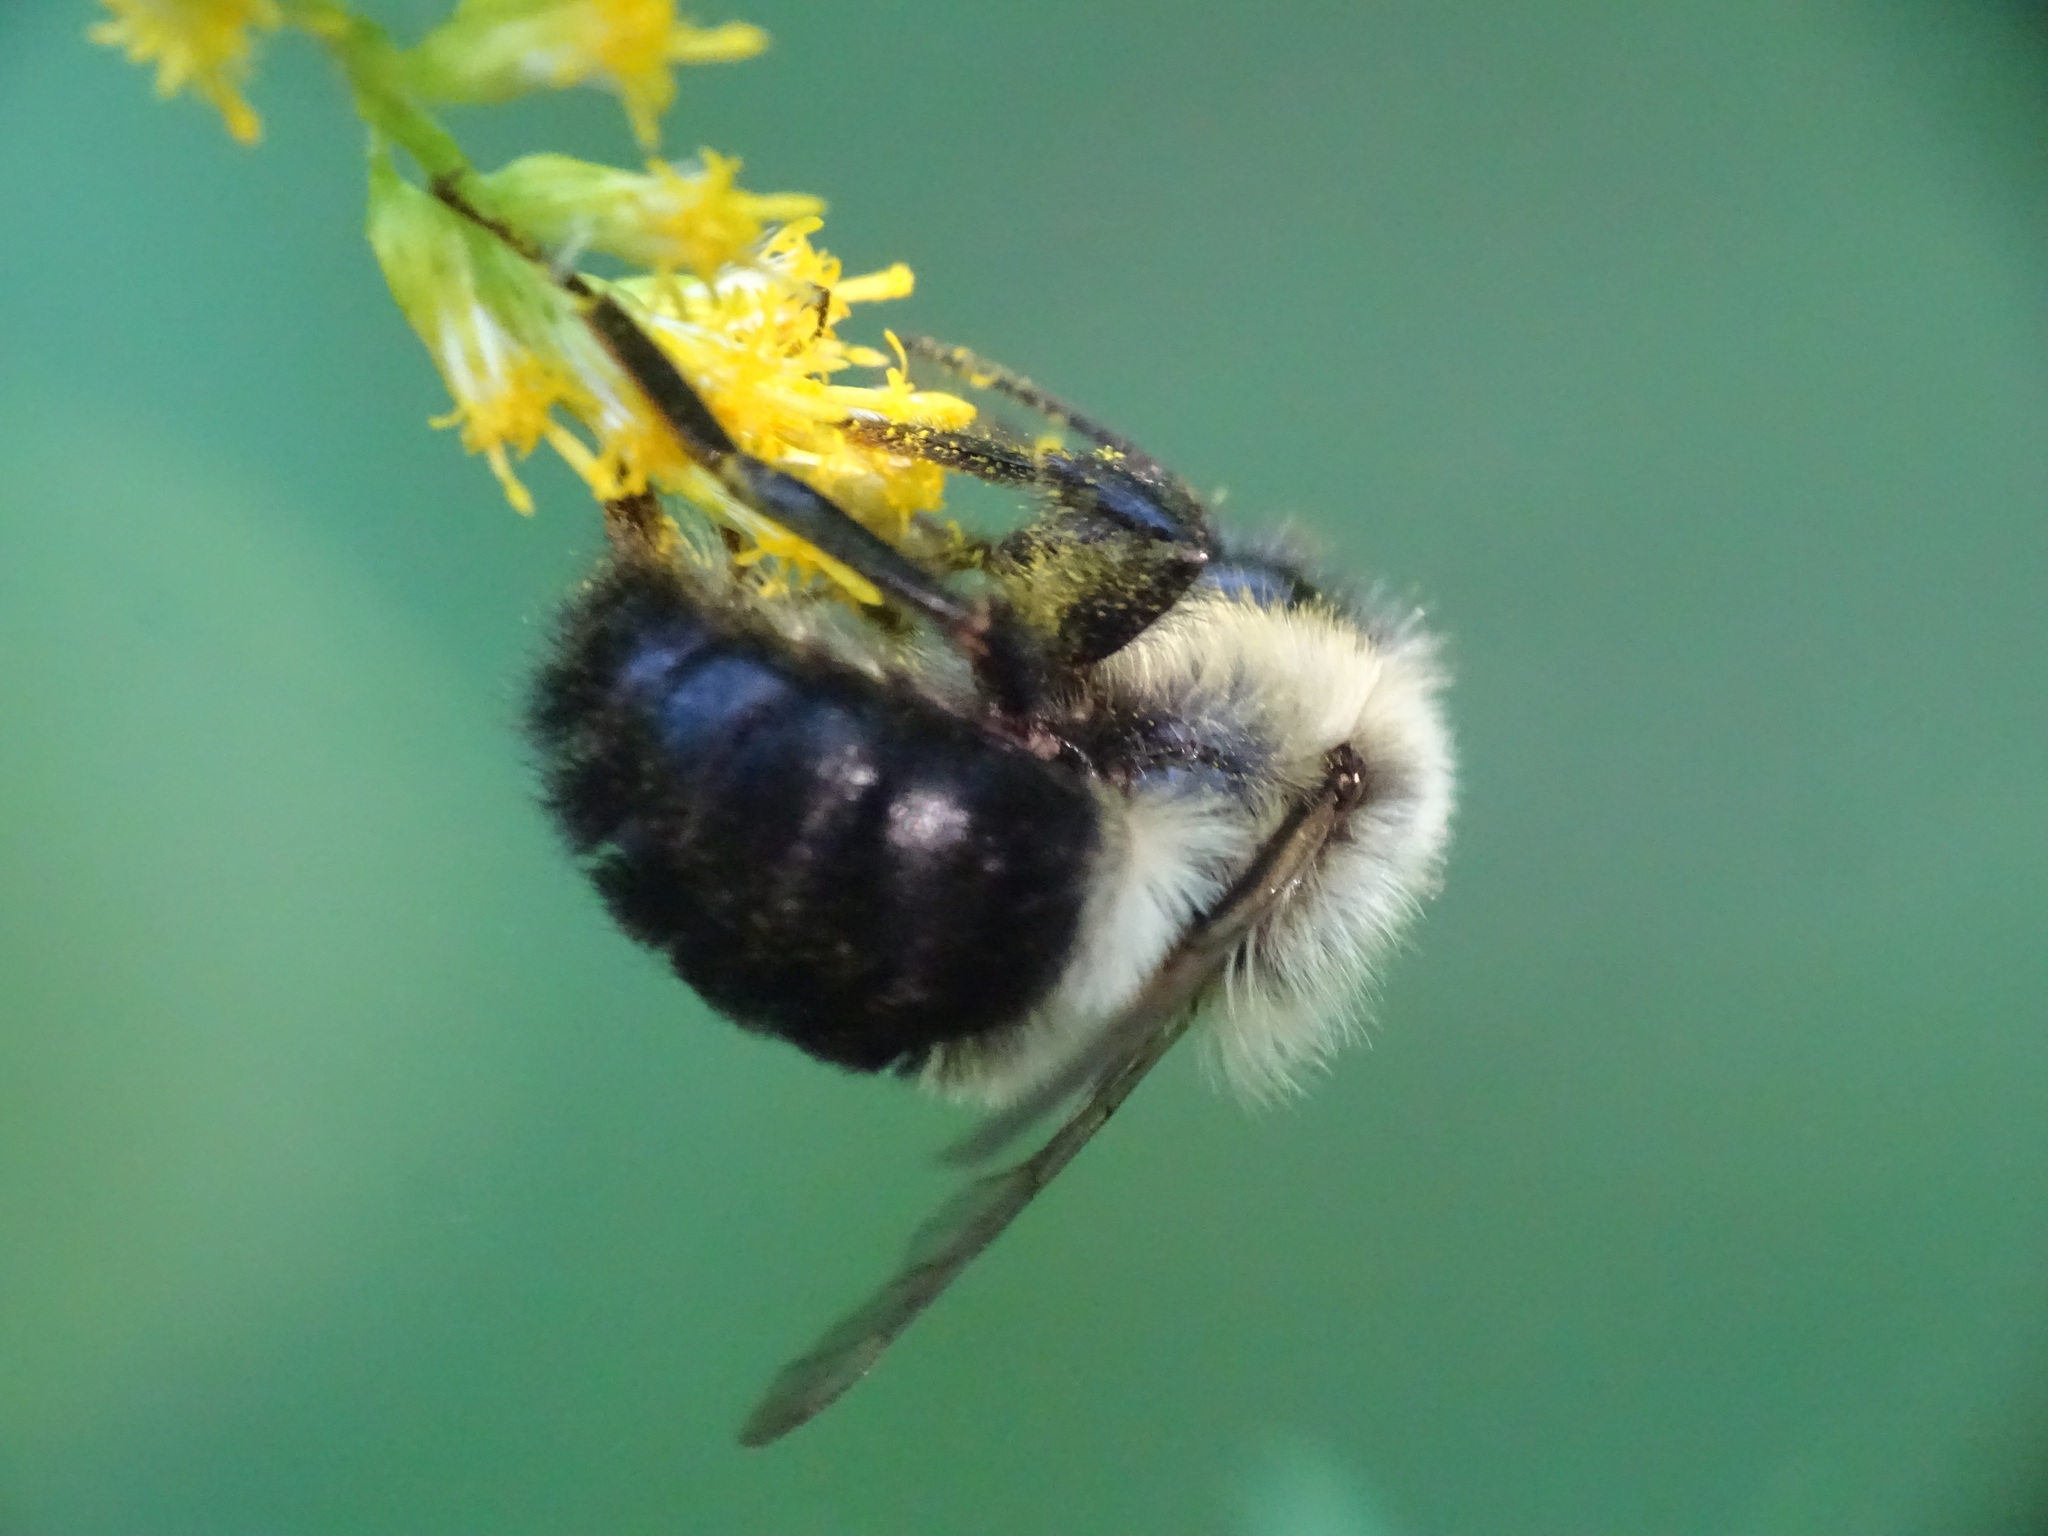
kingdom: Animalia
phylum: Arthropoda
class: Insecta
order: Hymenoptera
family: Apidae
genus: Bombus
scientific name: Bombus impatiens
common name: Common eastern bumble bee
